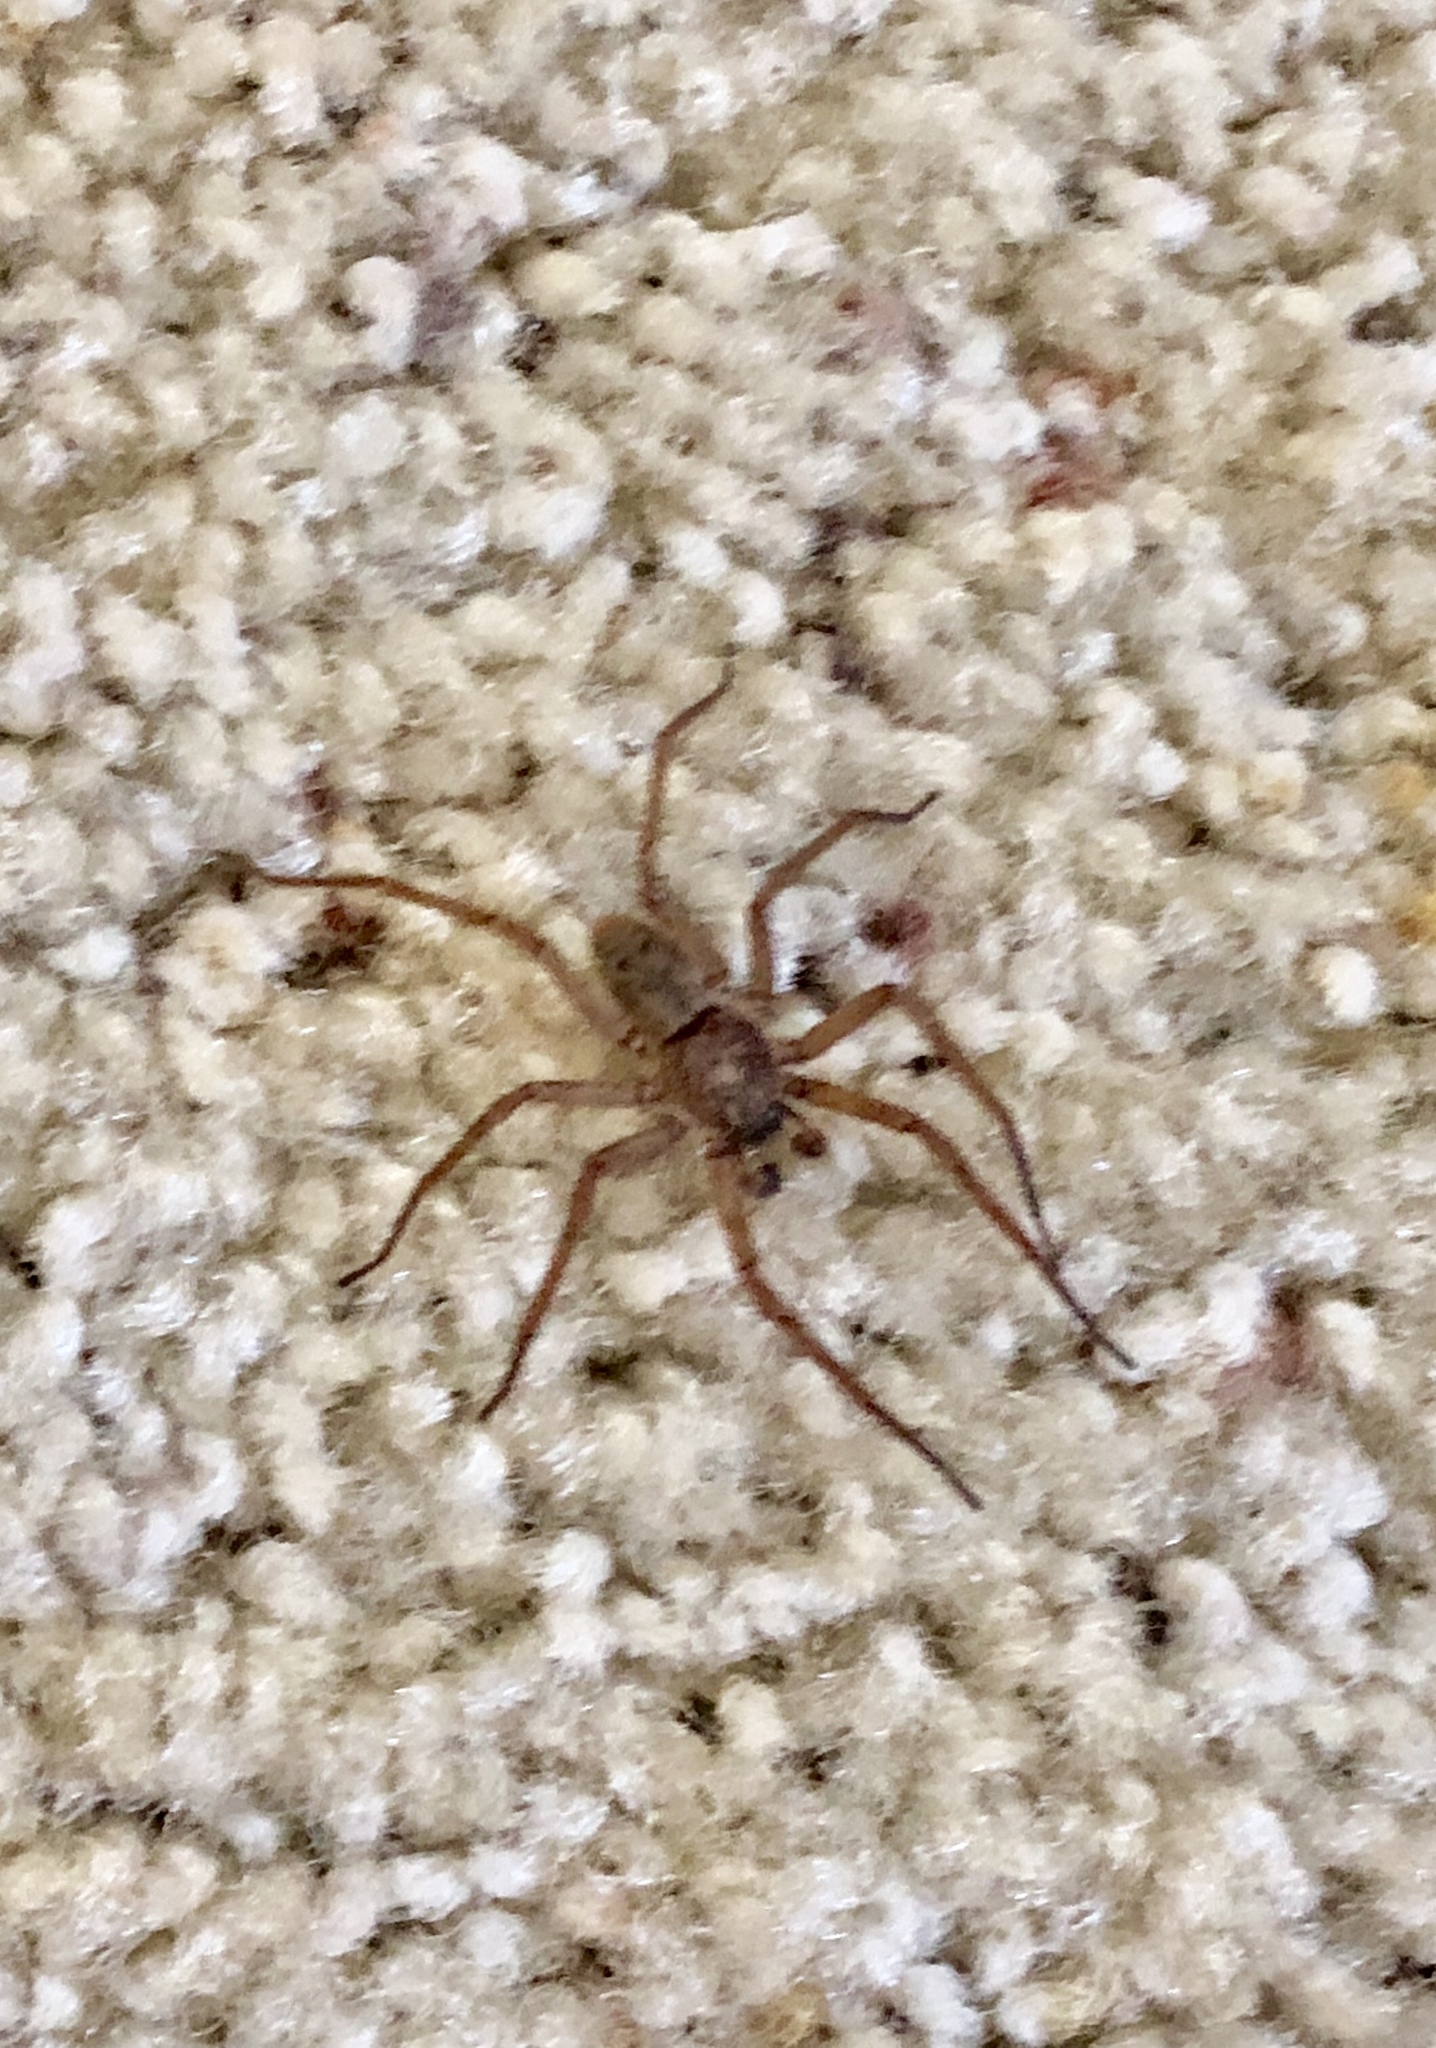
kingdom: Animalia
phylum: Arthropoda
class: Arachnida
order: Araneae
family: Zoropsidae
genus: Lauricius
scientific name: Lauricius hooki
